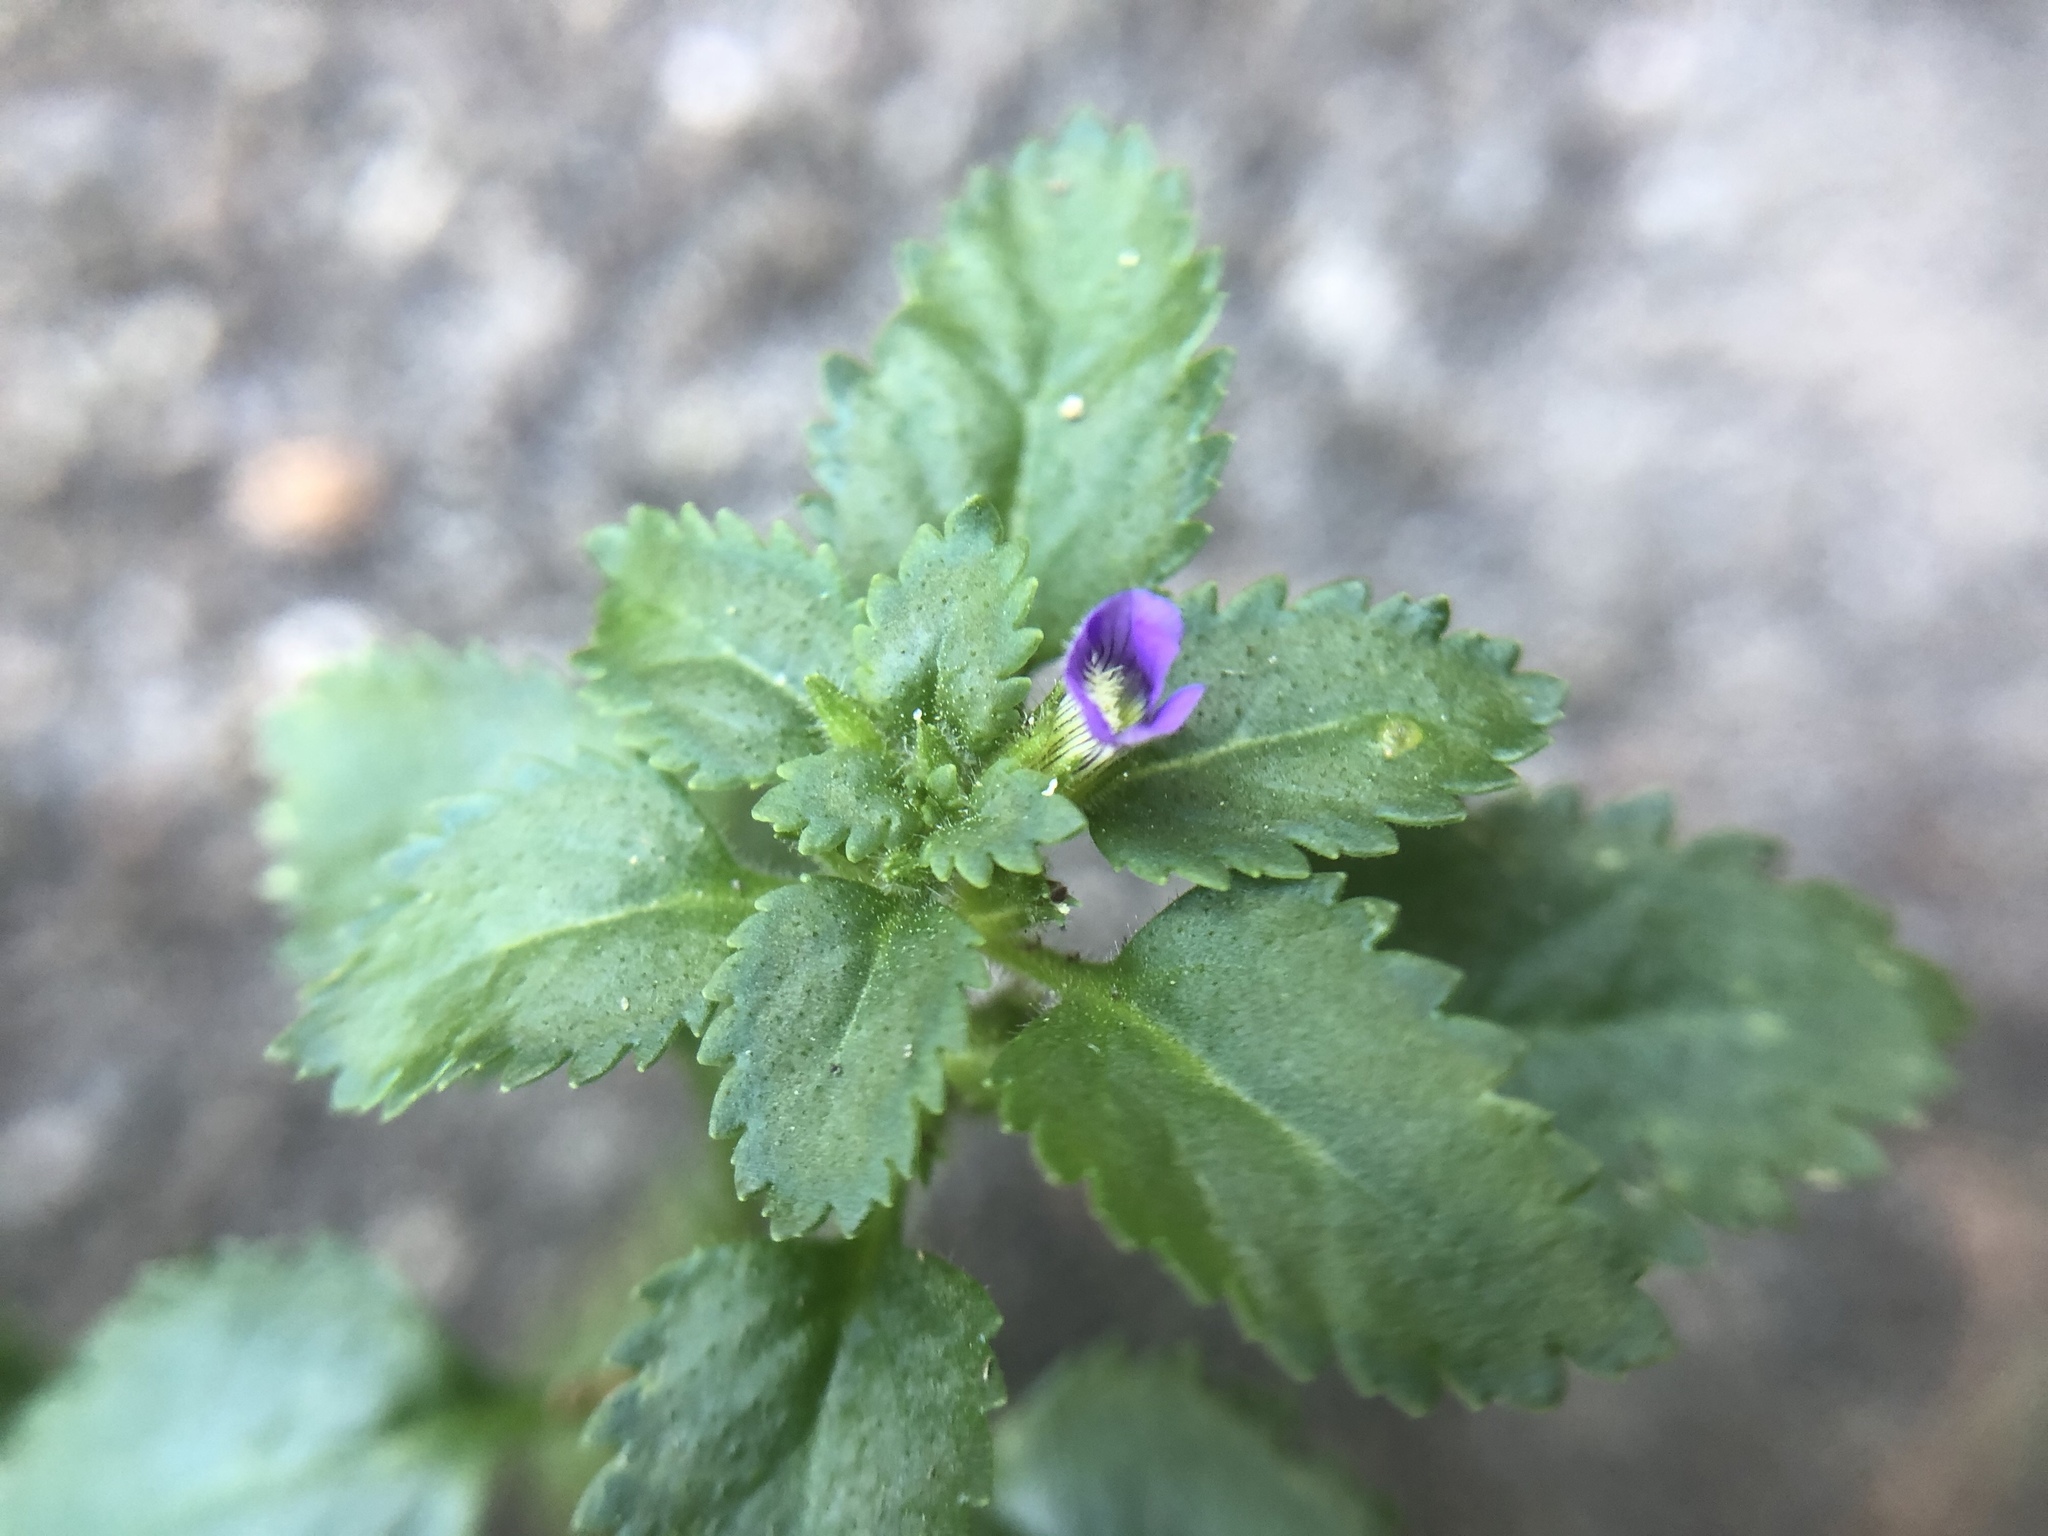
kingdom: Plantae
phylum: Tracheophyta
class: Magnoliopsida
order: Lamiales
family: Plantaginaceae
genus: Stemodia
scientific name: Stemodia verticillata
